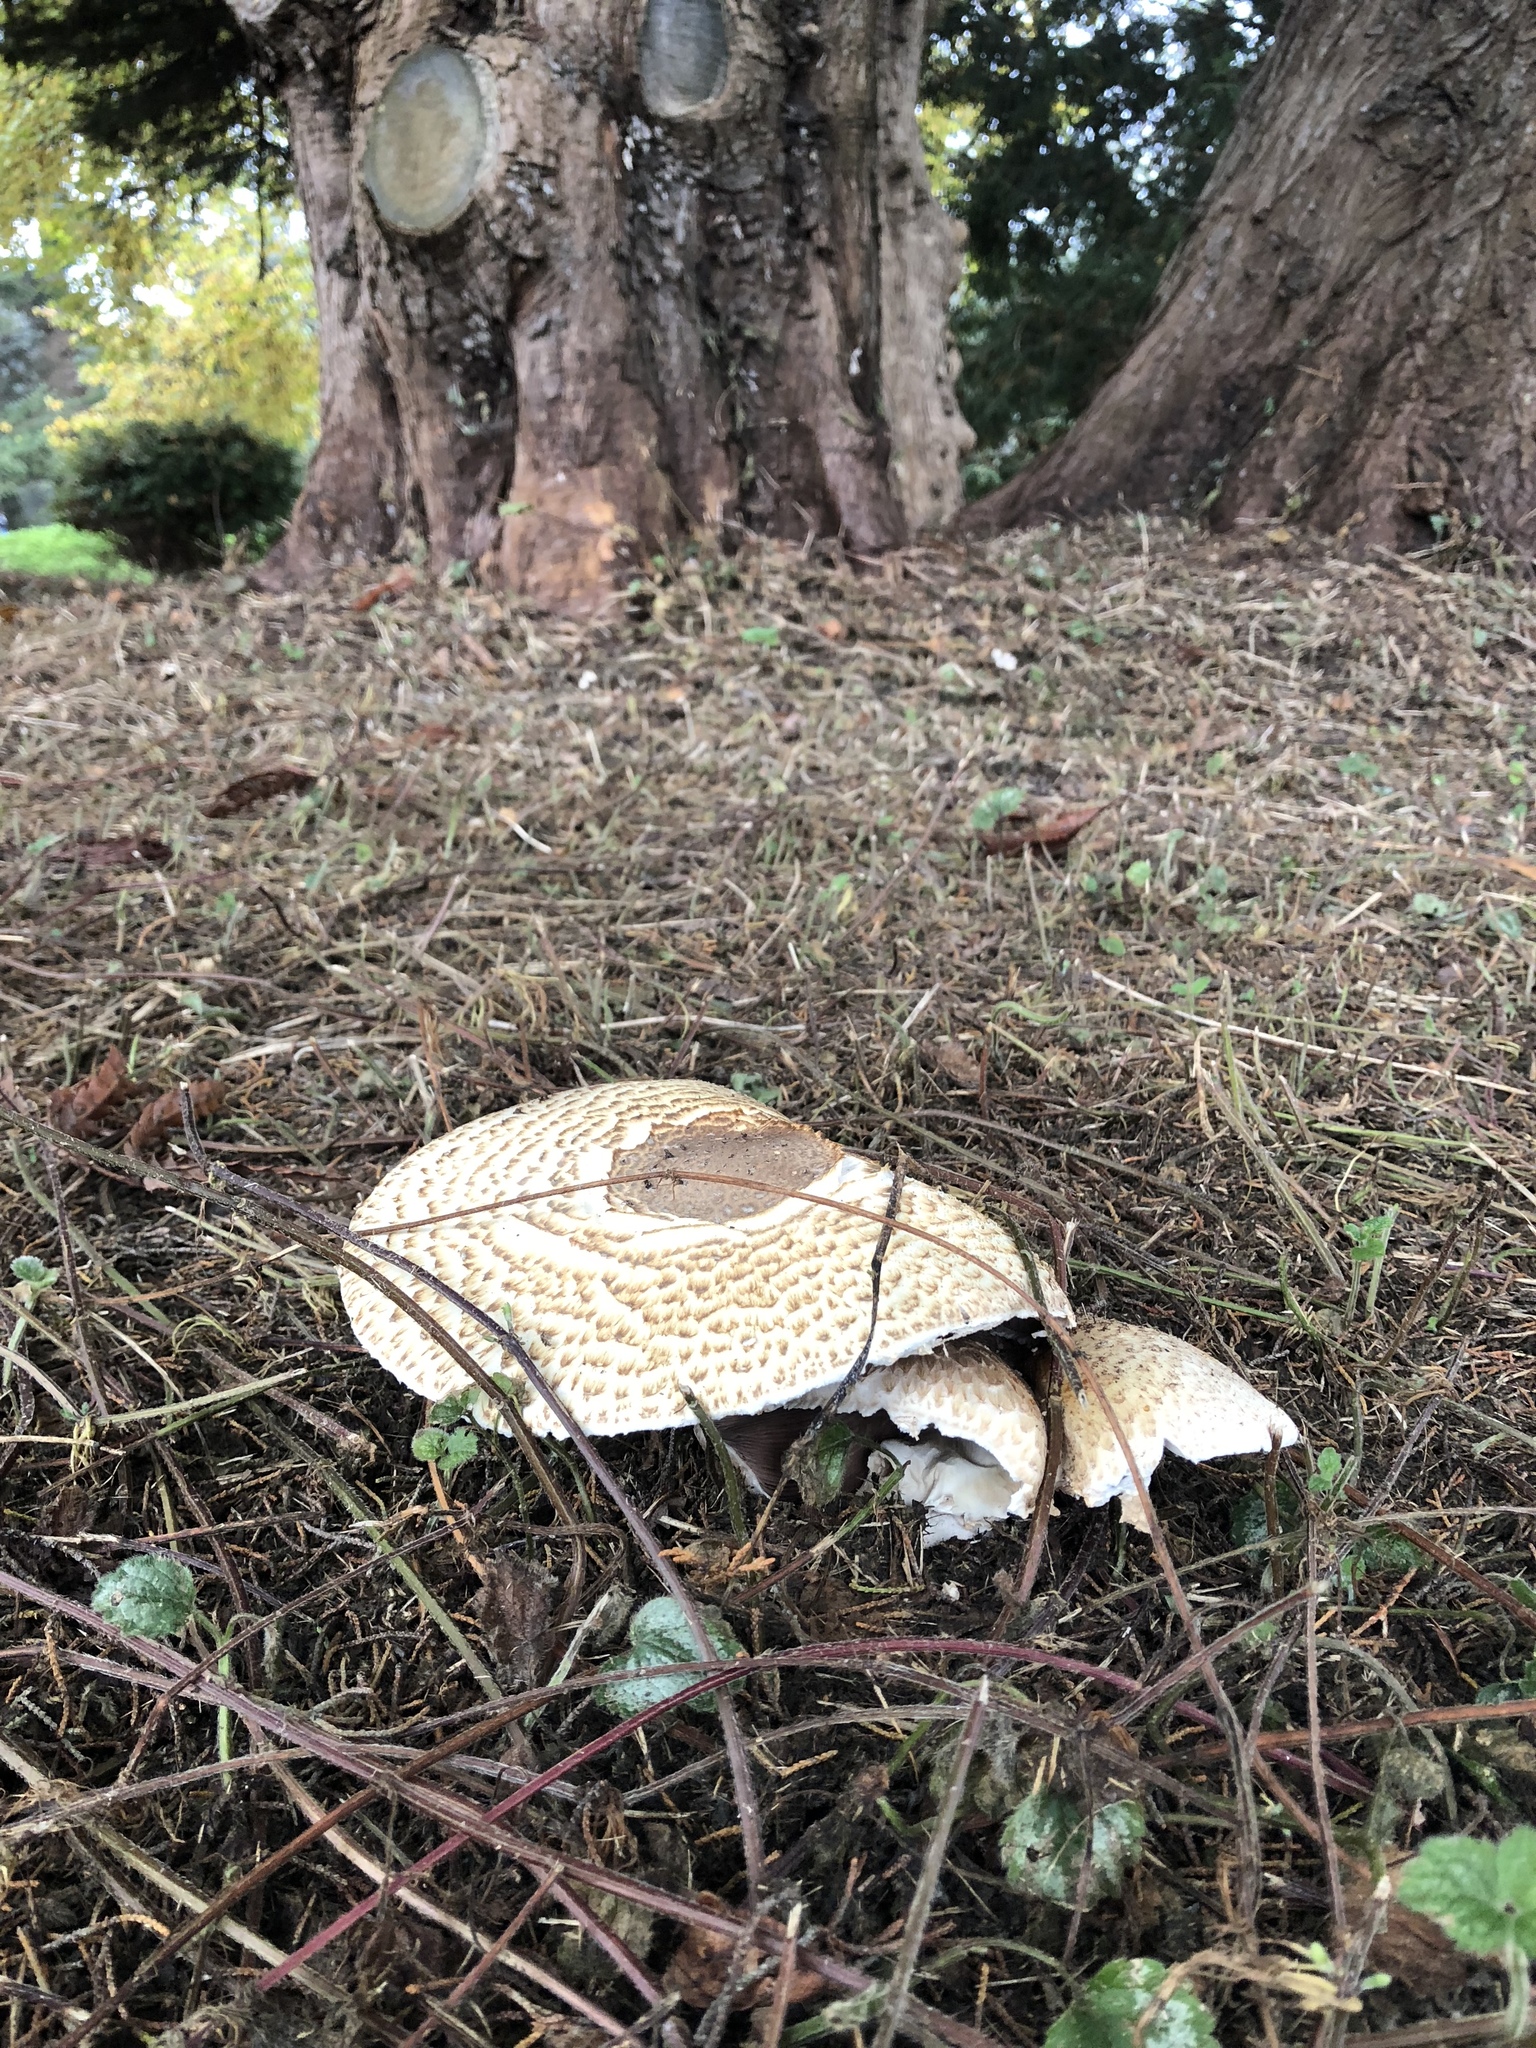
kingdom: Fungi
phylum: Basidiomycota
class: Agaricomycetes
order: Agaricales
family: Agaricaceae
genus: Agaricus
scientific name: Agaricus augustus
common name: Prince
